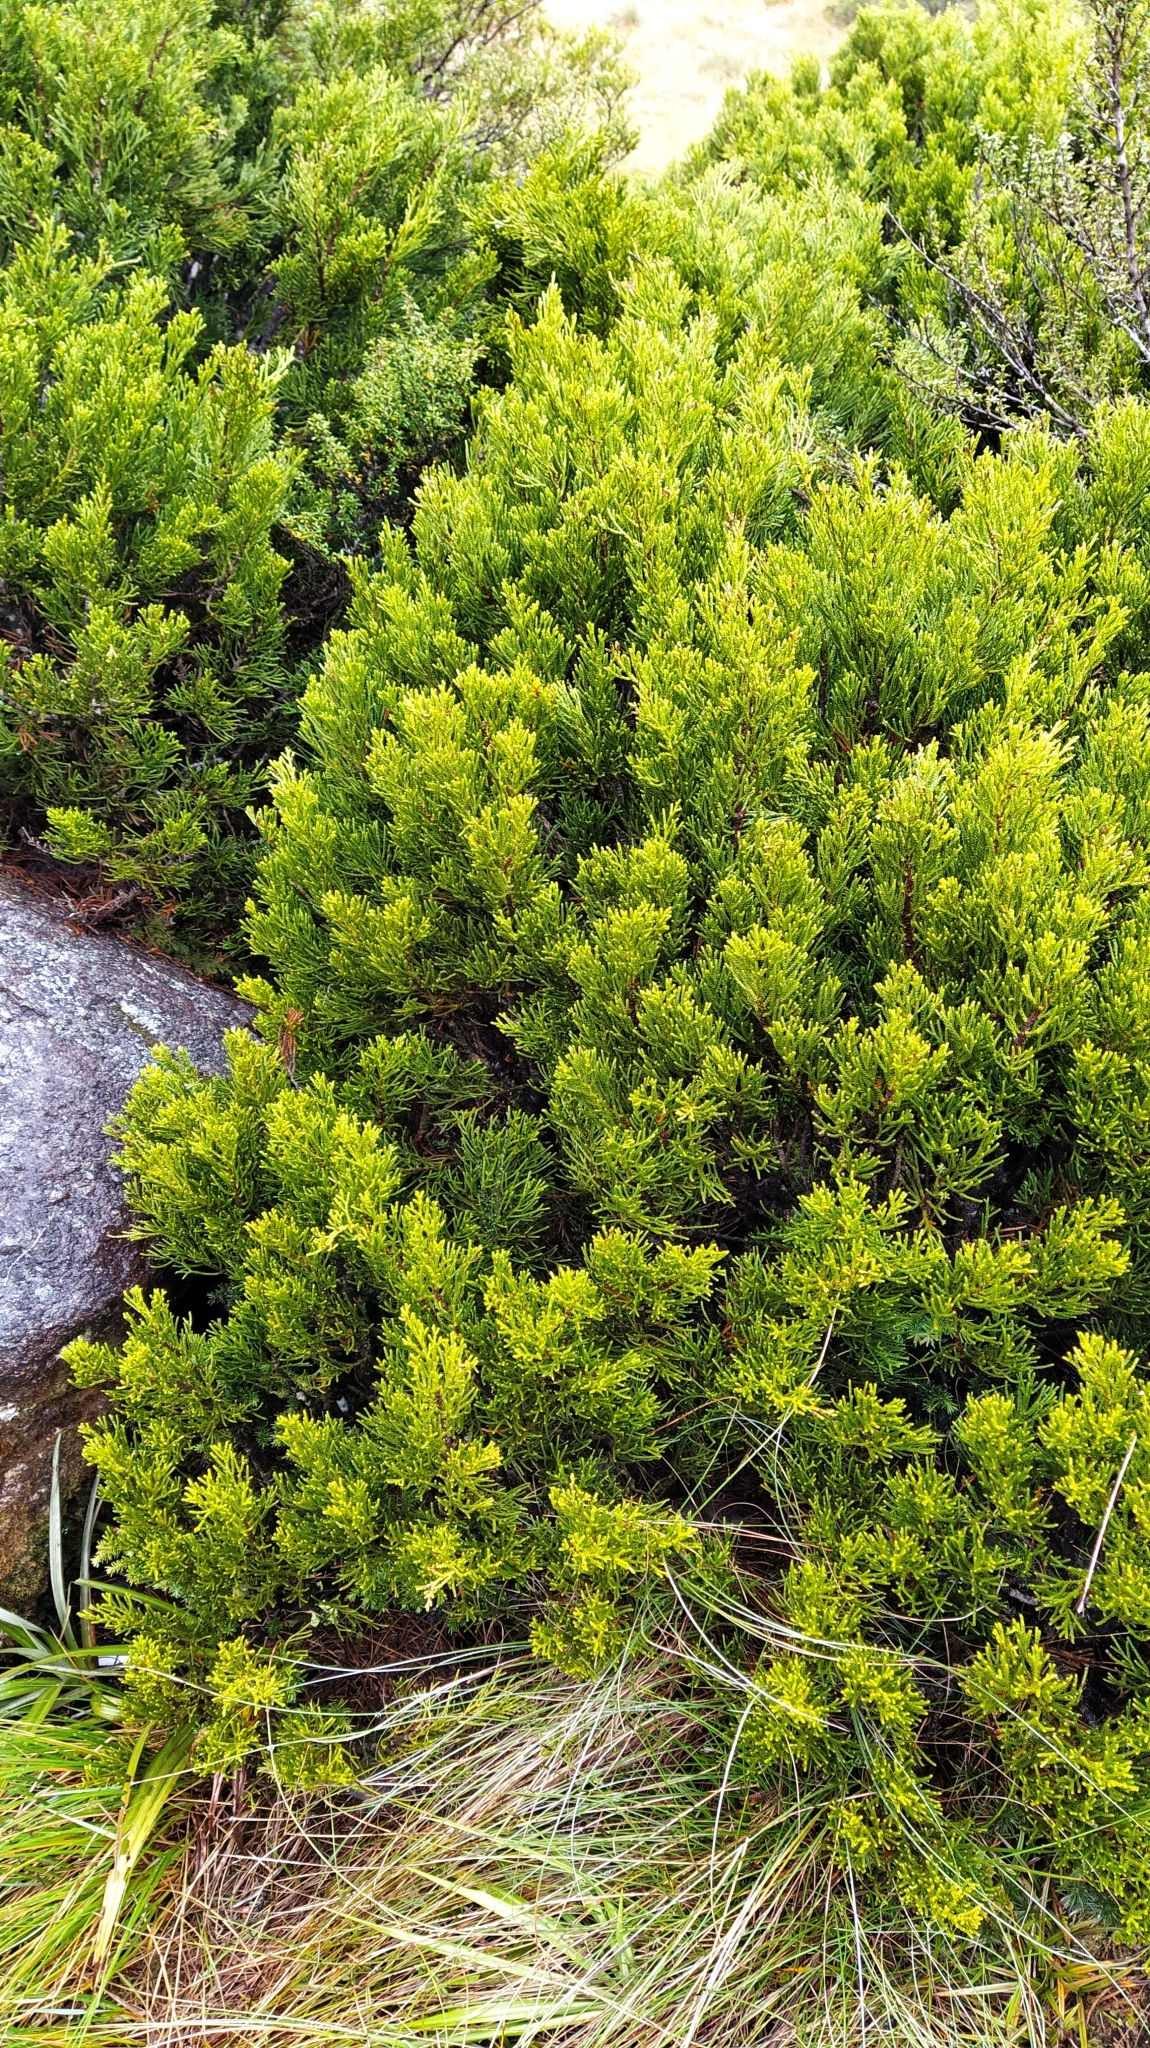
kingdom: Plantae
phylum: Tracheophyta
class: Pinopsida
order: Pinales
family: Podocarpaceae
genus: Halocarpus
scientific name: Halocarpus bidwillii
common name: Bog pine
